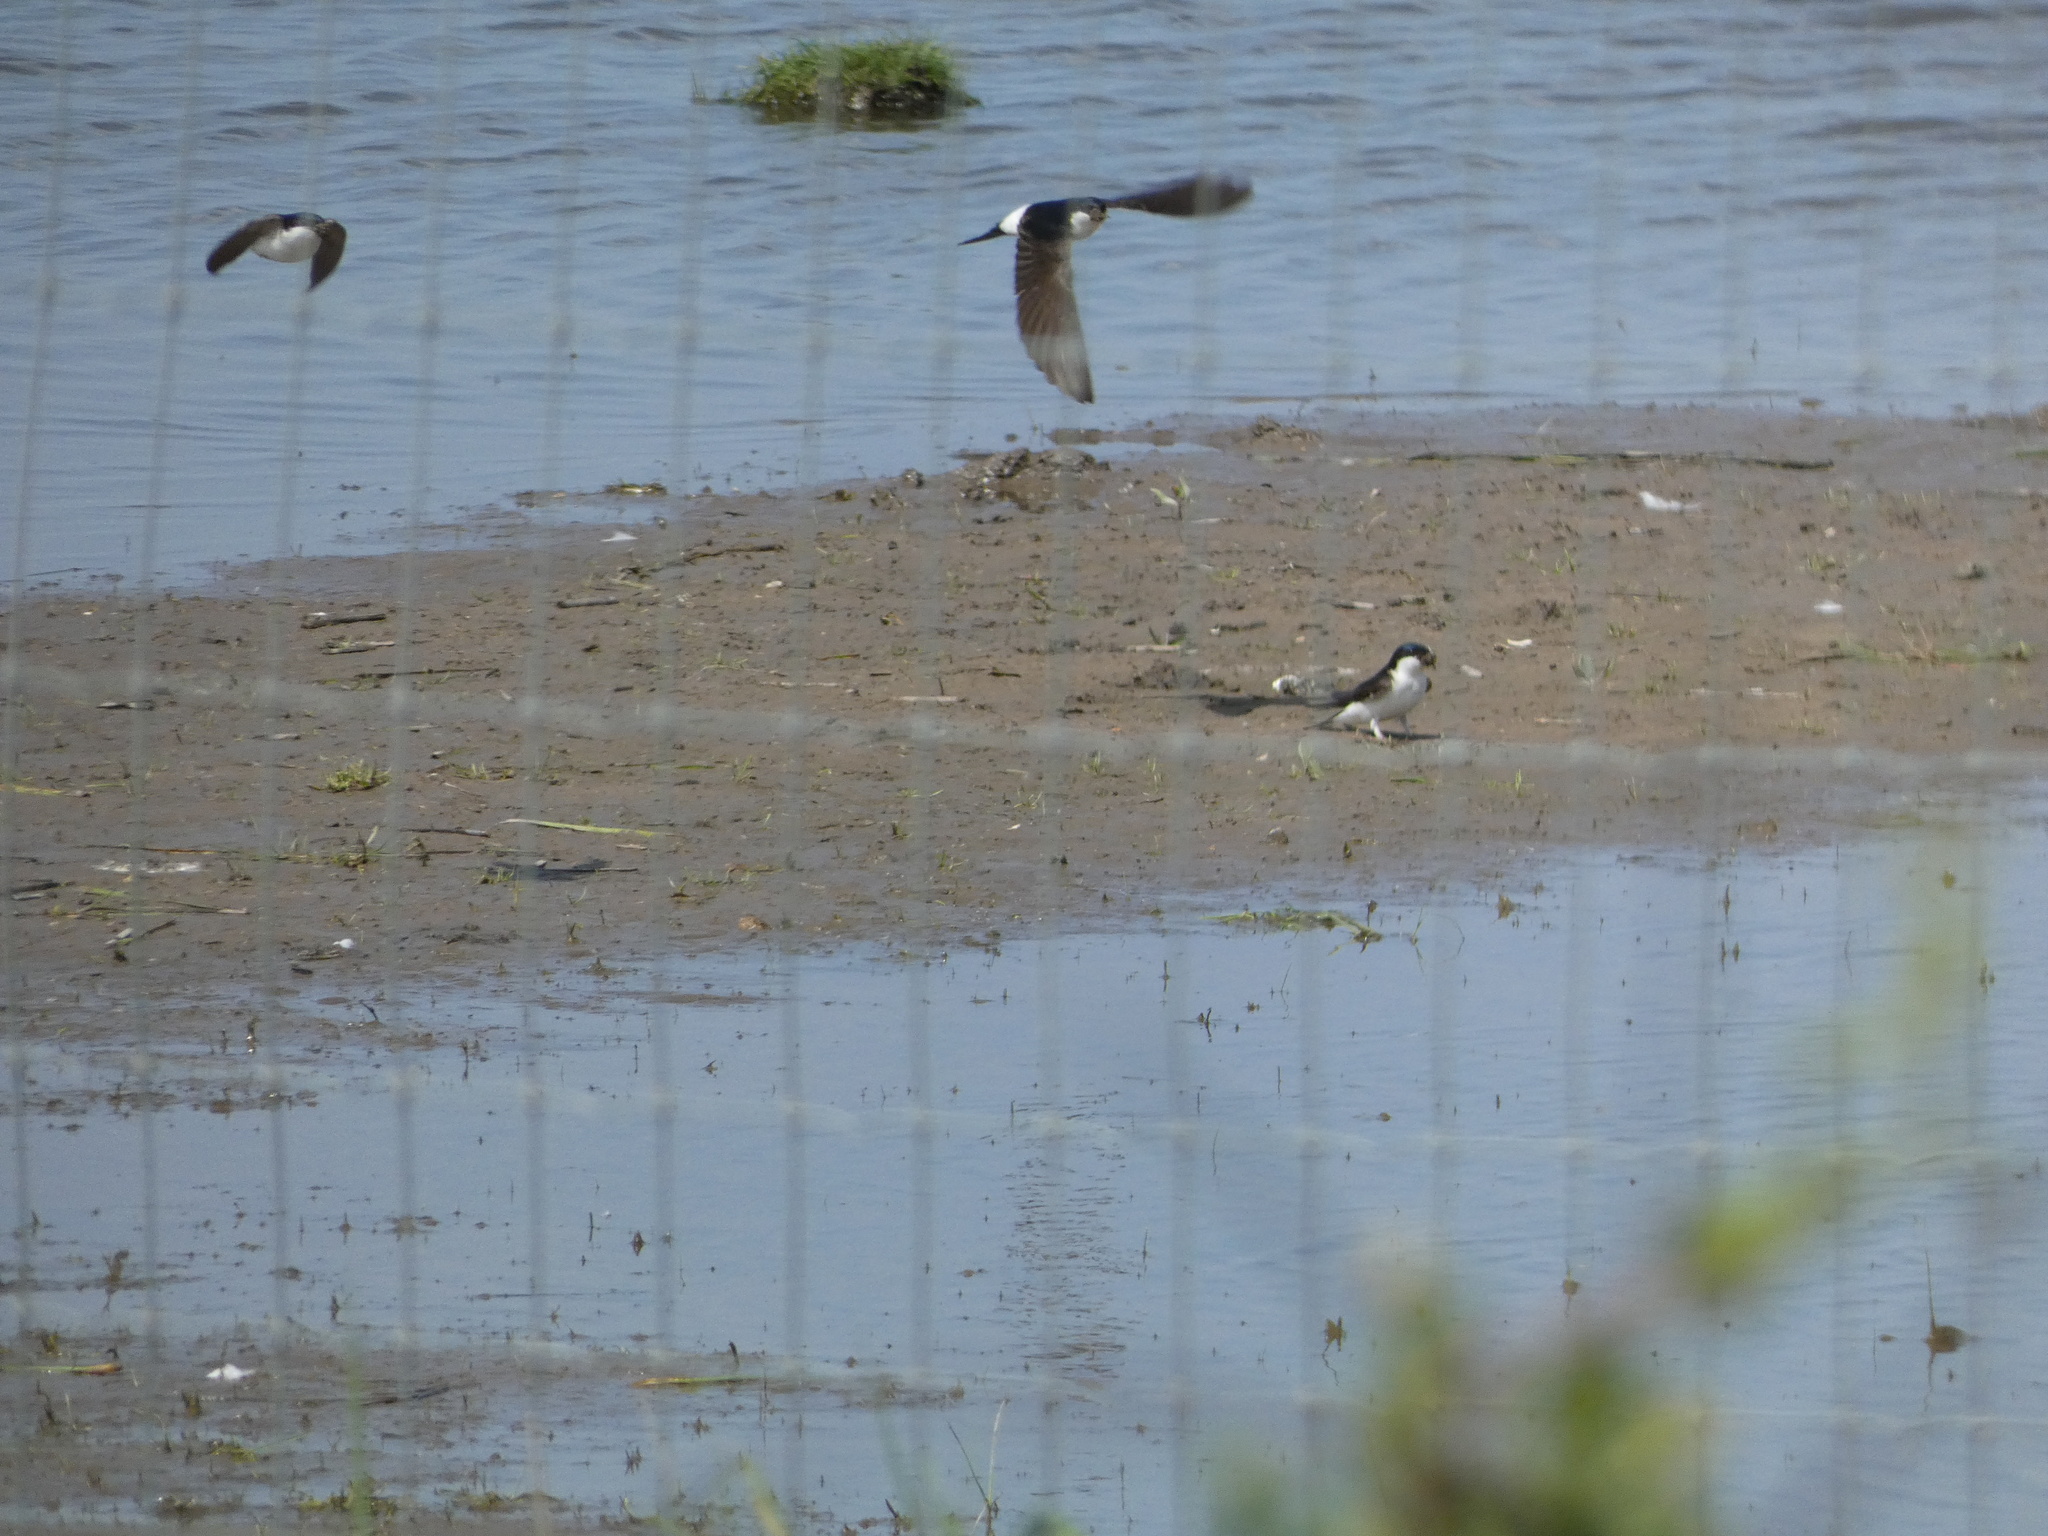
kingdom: Animalia
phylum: Chordata
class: Aves
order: Passeriformes
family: Hirundinidae
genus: Delichon
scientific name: Delichon urbicum
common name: Common house martin
